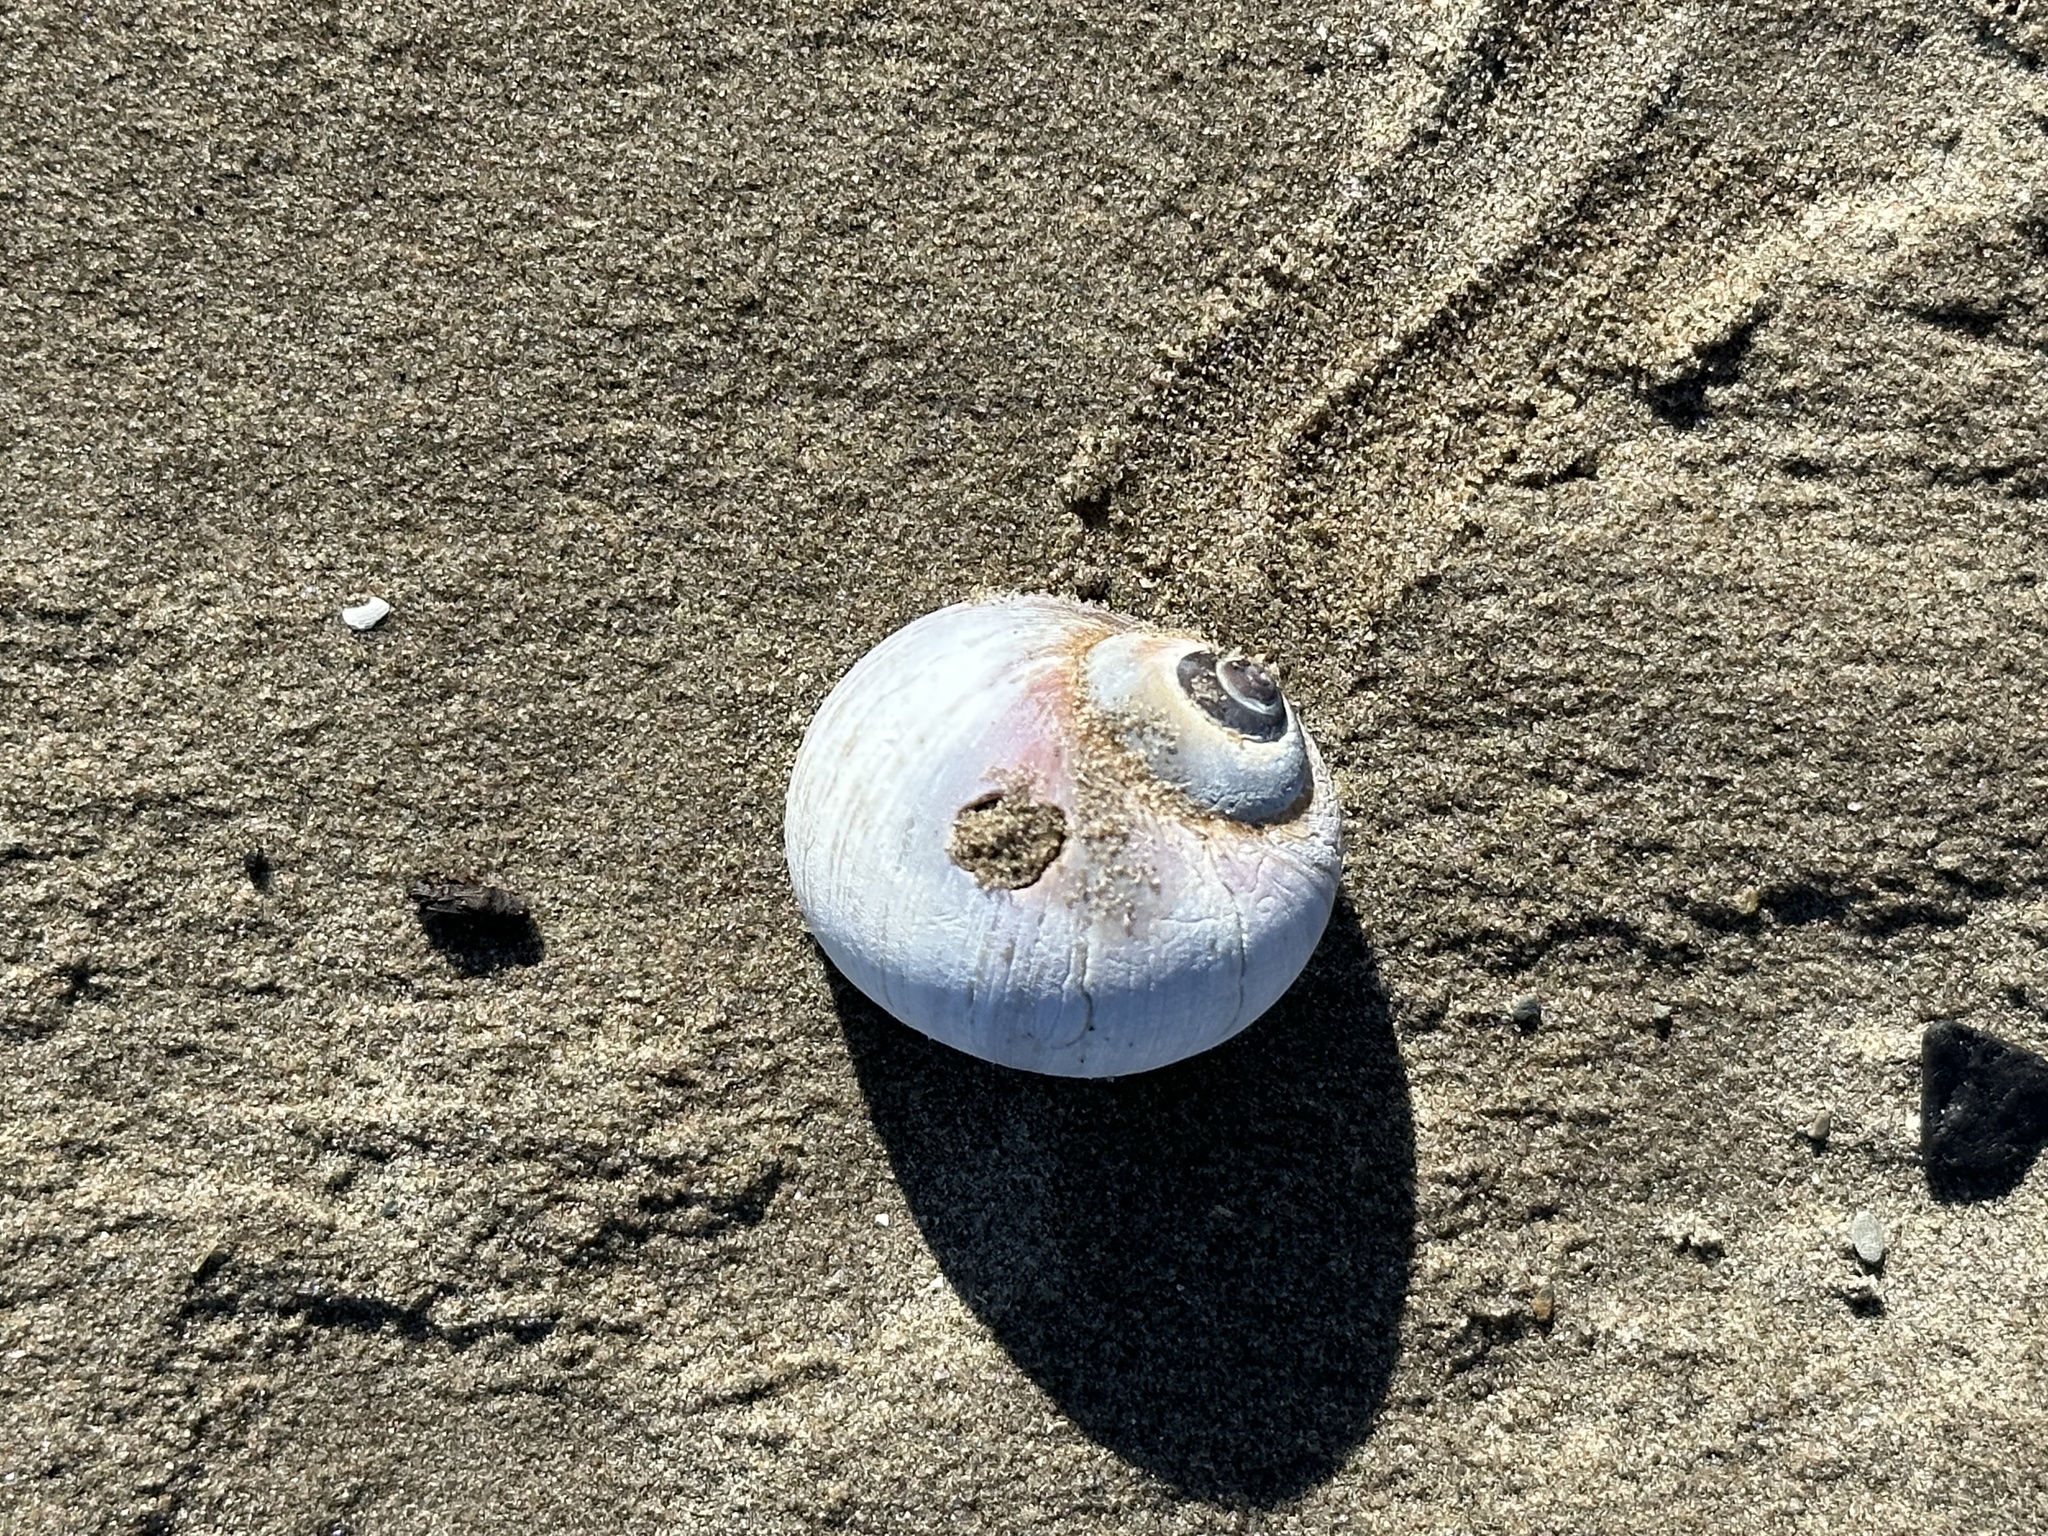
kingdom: Animalia
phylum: Mollusca
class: Gastropoda
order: Littorinimorpha
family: Naticidae
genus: Euspira
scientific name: Euspira heros
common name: Common northern moonsnail
